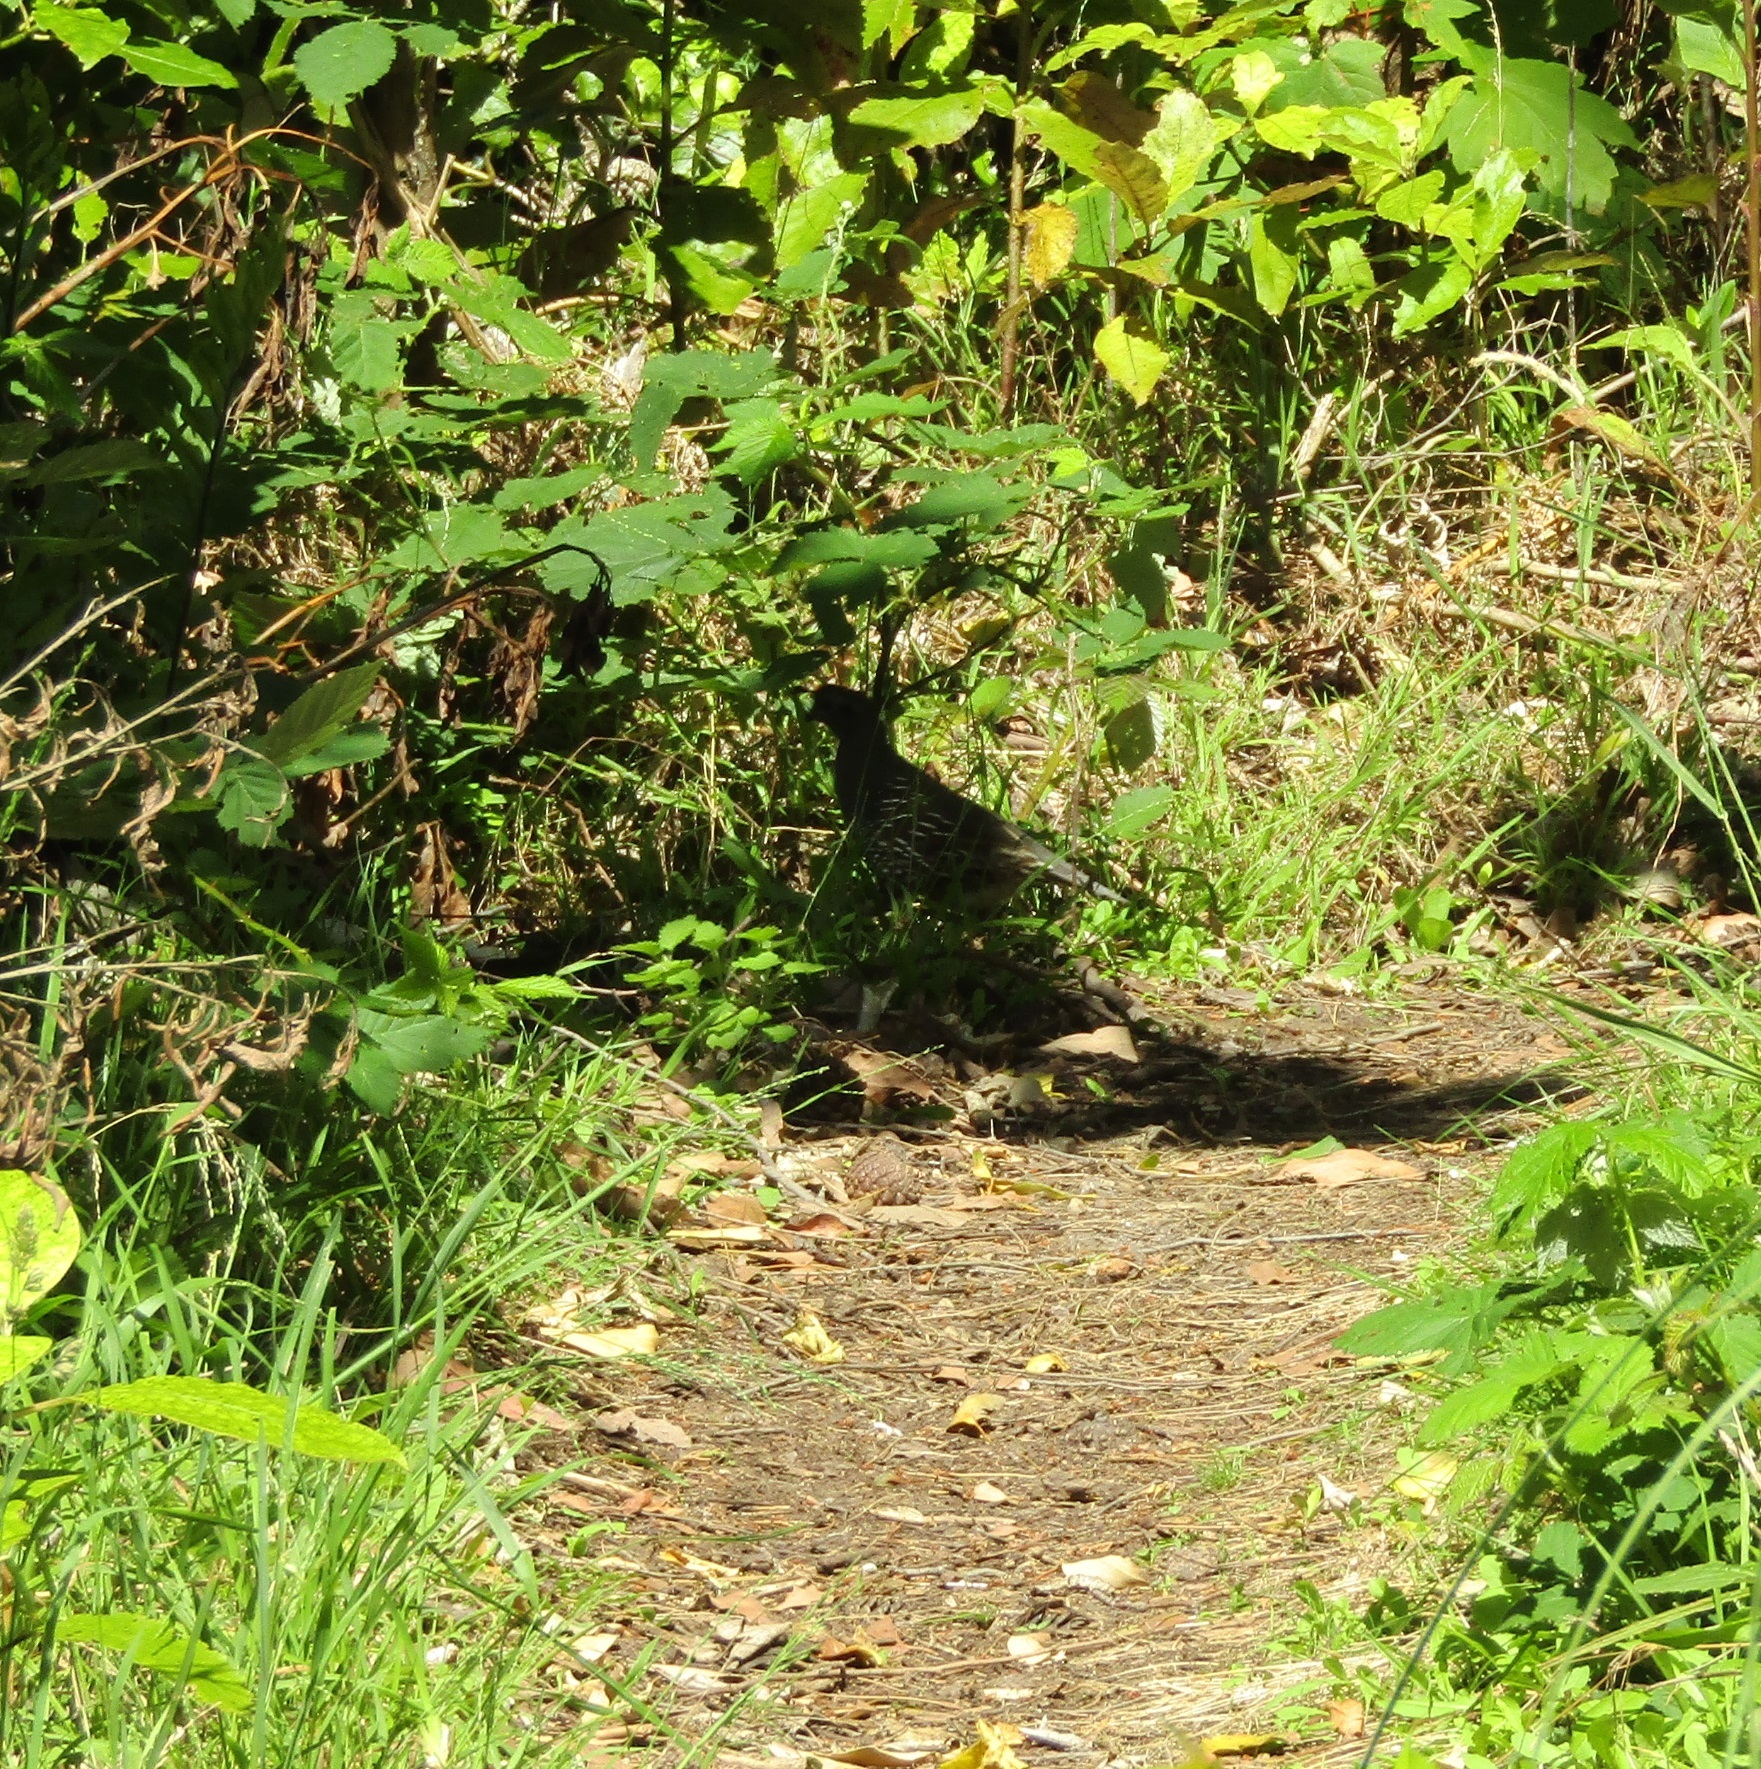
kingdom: Animalia
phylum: Chordata
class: Aves
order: Galliformes
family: Odontophoridae
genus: Callipepla
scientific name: Callipepla californica
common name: California quail
